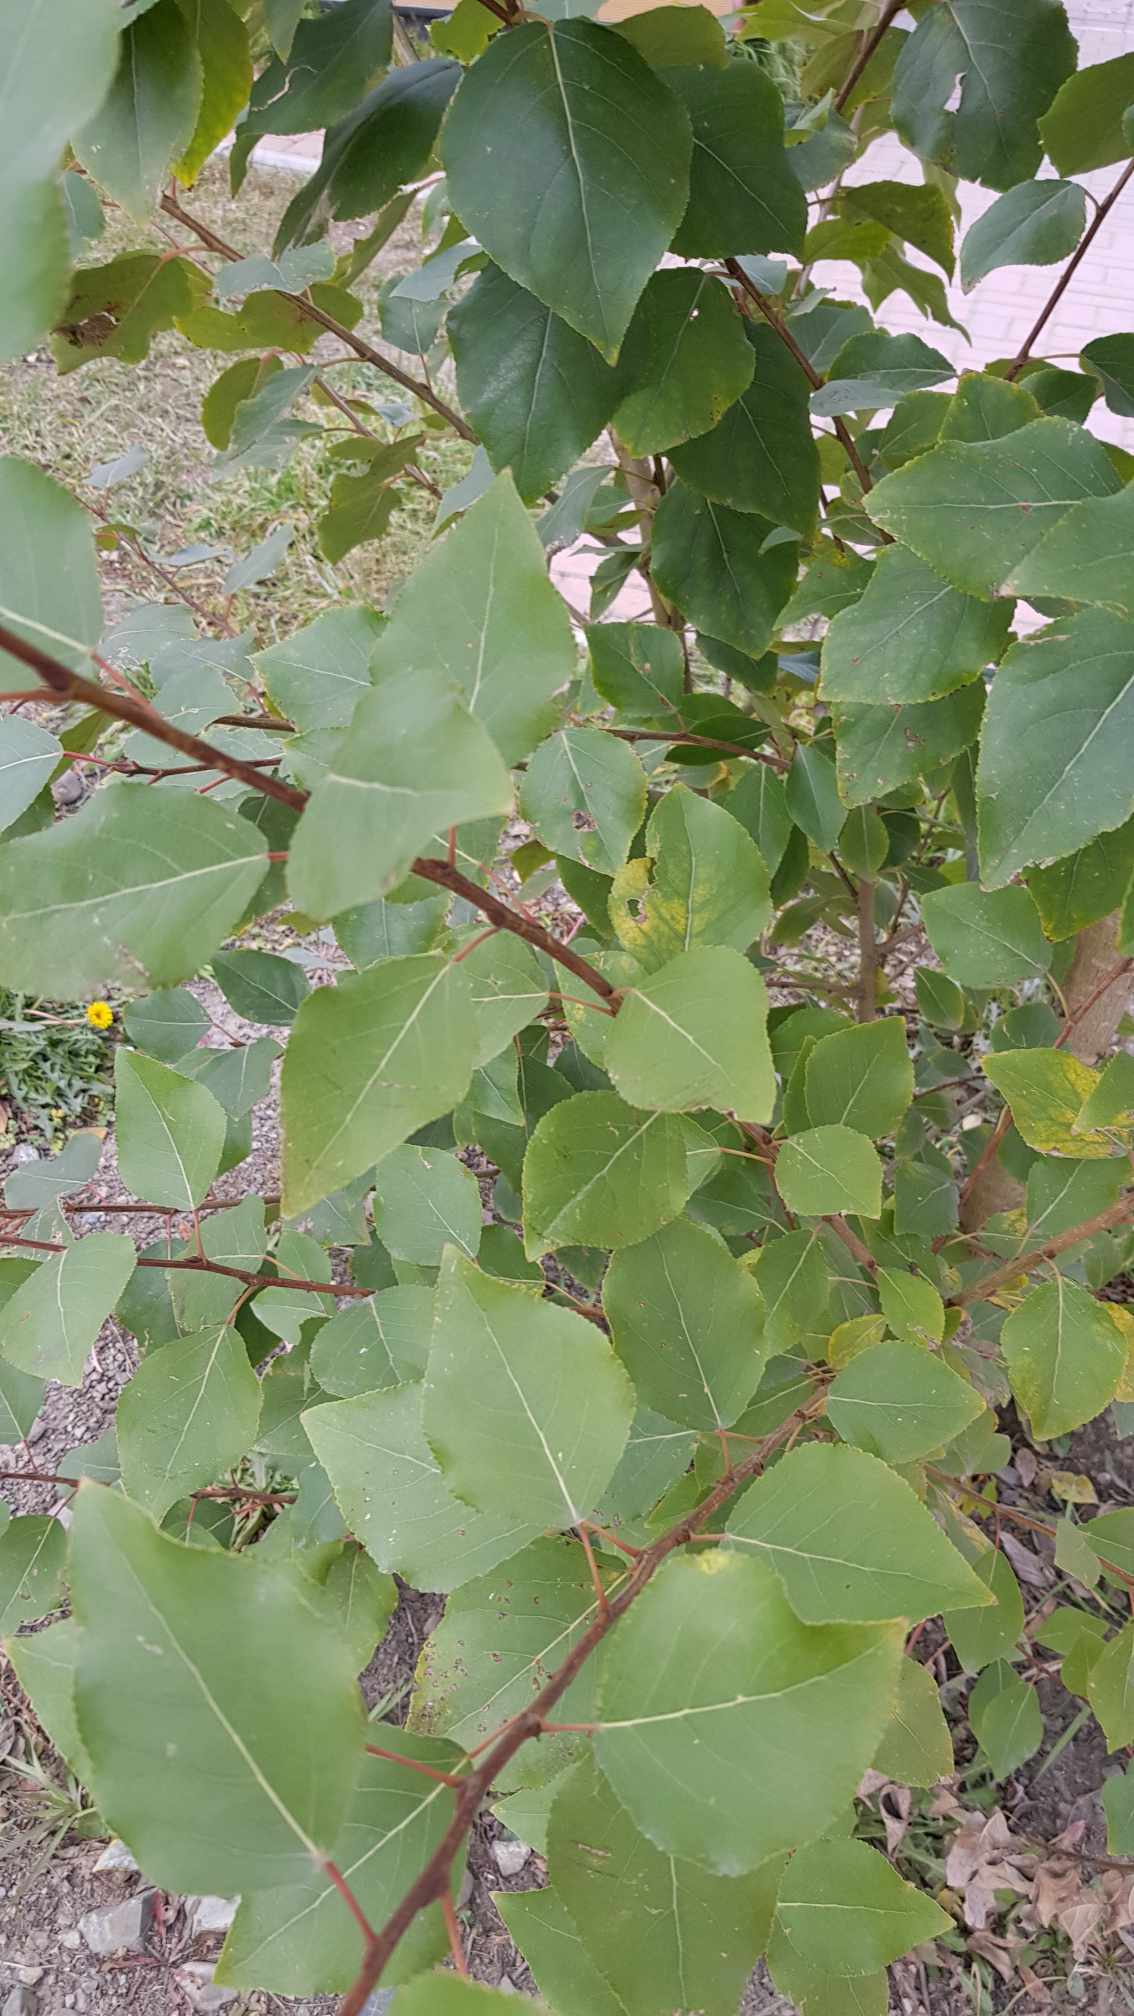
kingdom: Plantae
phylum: Tracheophyta
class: Magnoliopsida
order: Malpighiales
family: Salicaceae
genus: Populus
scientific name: Populus laurifolia
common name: Laurel-leaf poplar
